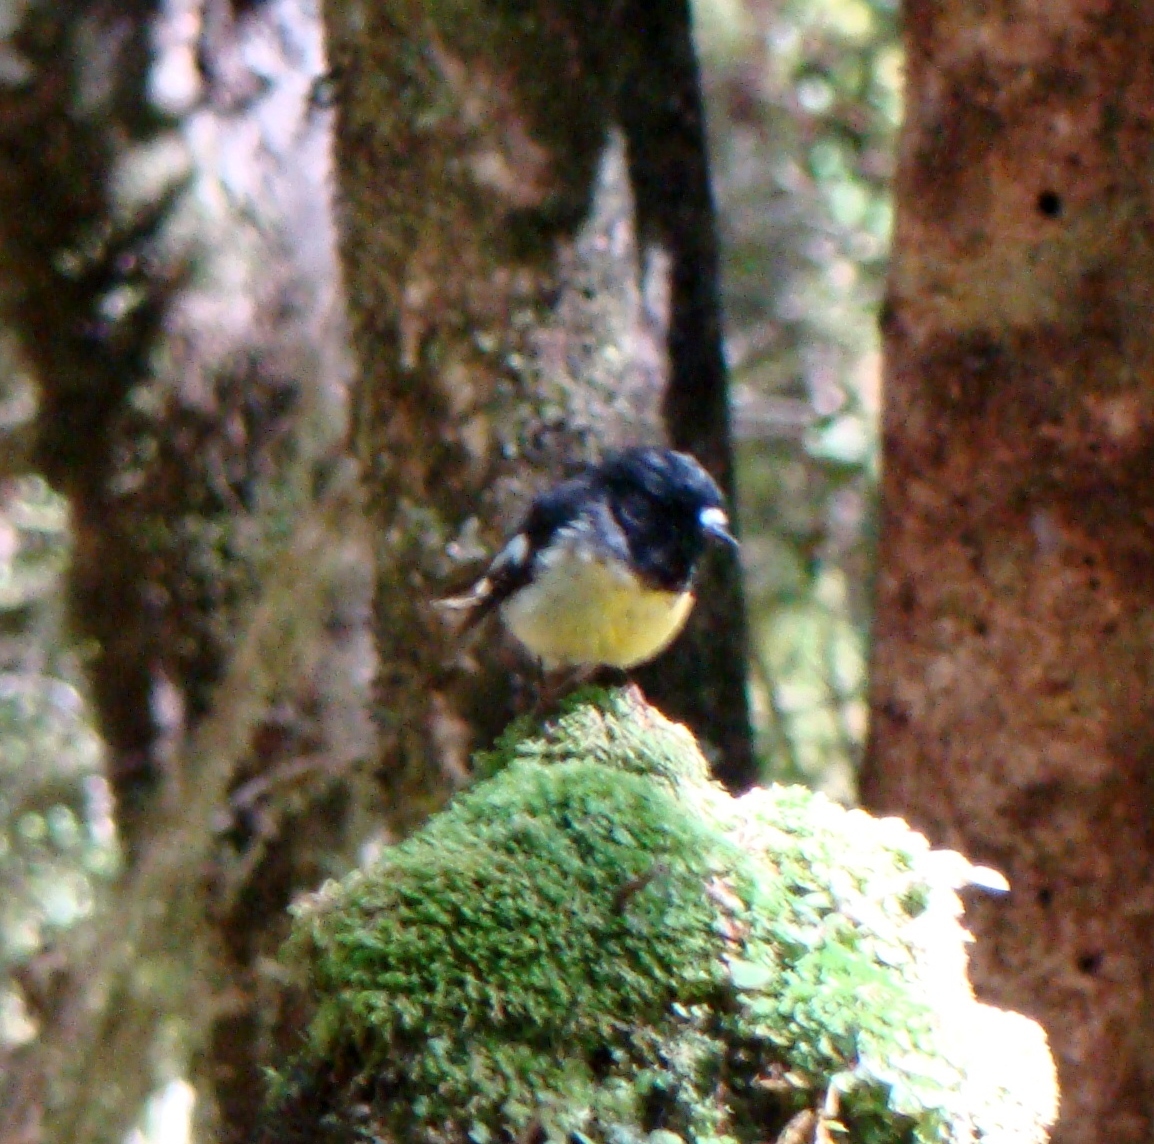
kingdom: Animalia
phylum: Chordata
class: Aves
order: Passeriformes
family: Petroicidae
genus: Petroica
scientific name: Petroica macrocephala
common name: Tomtit
